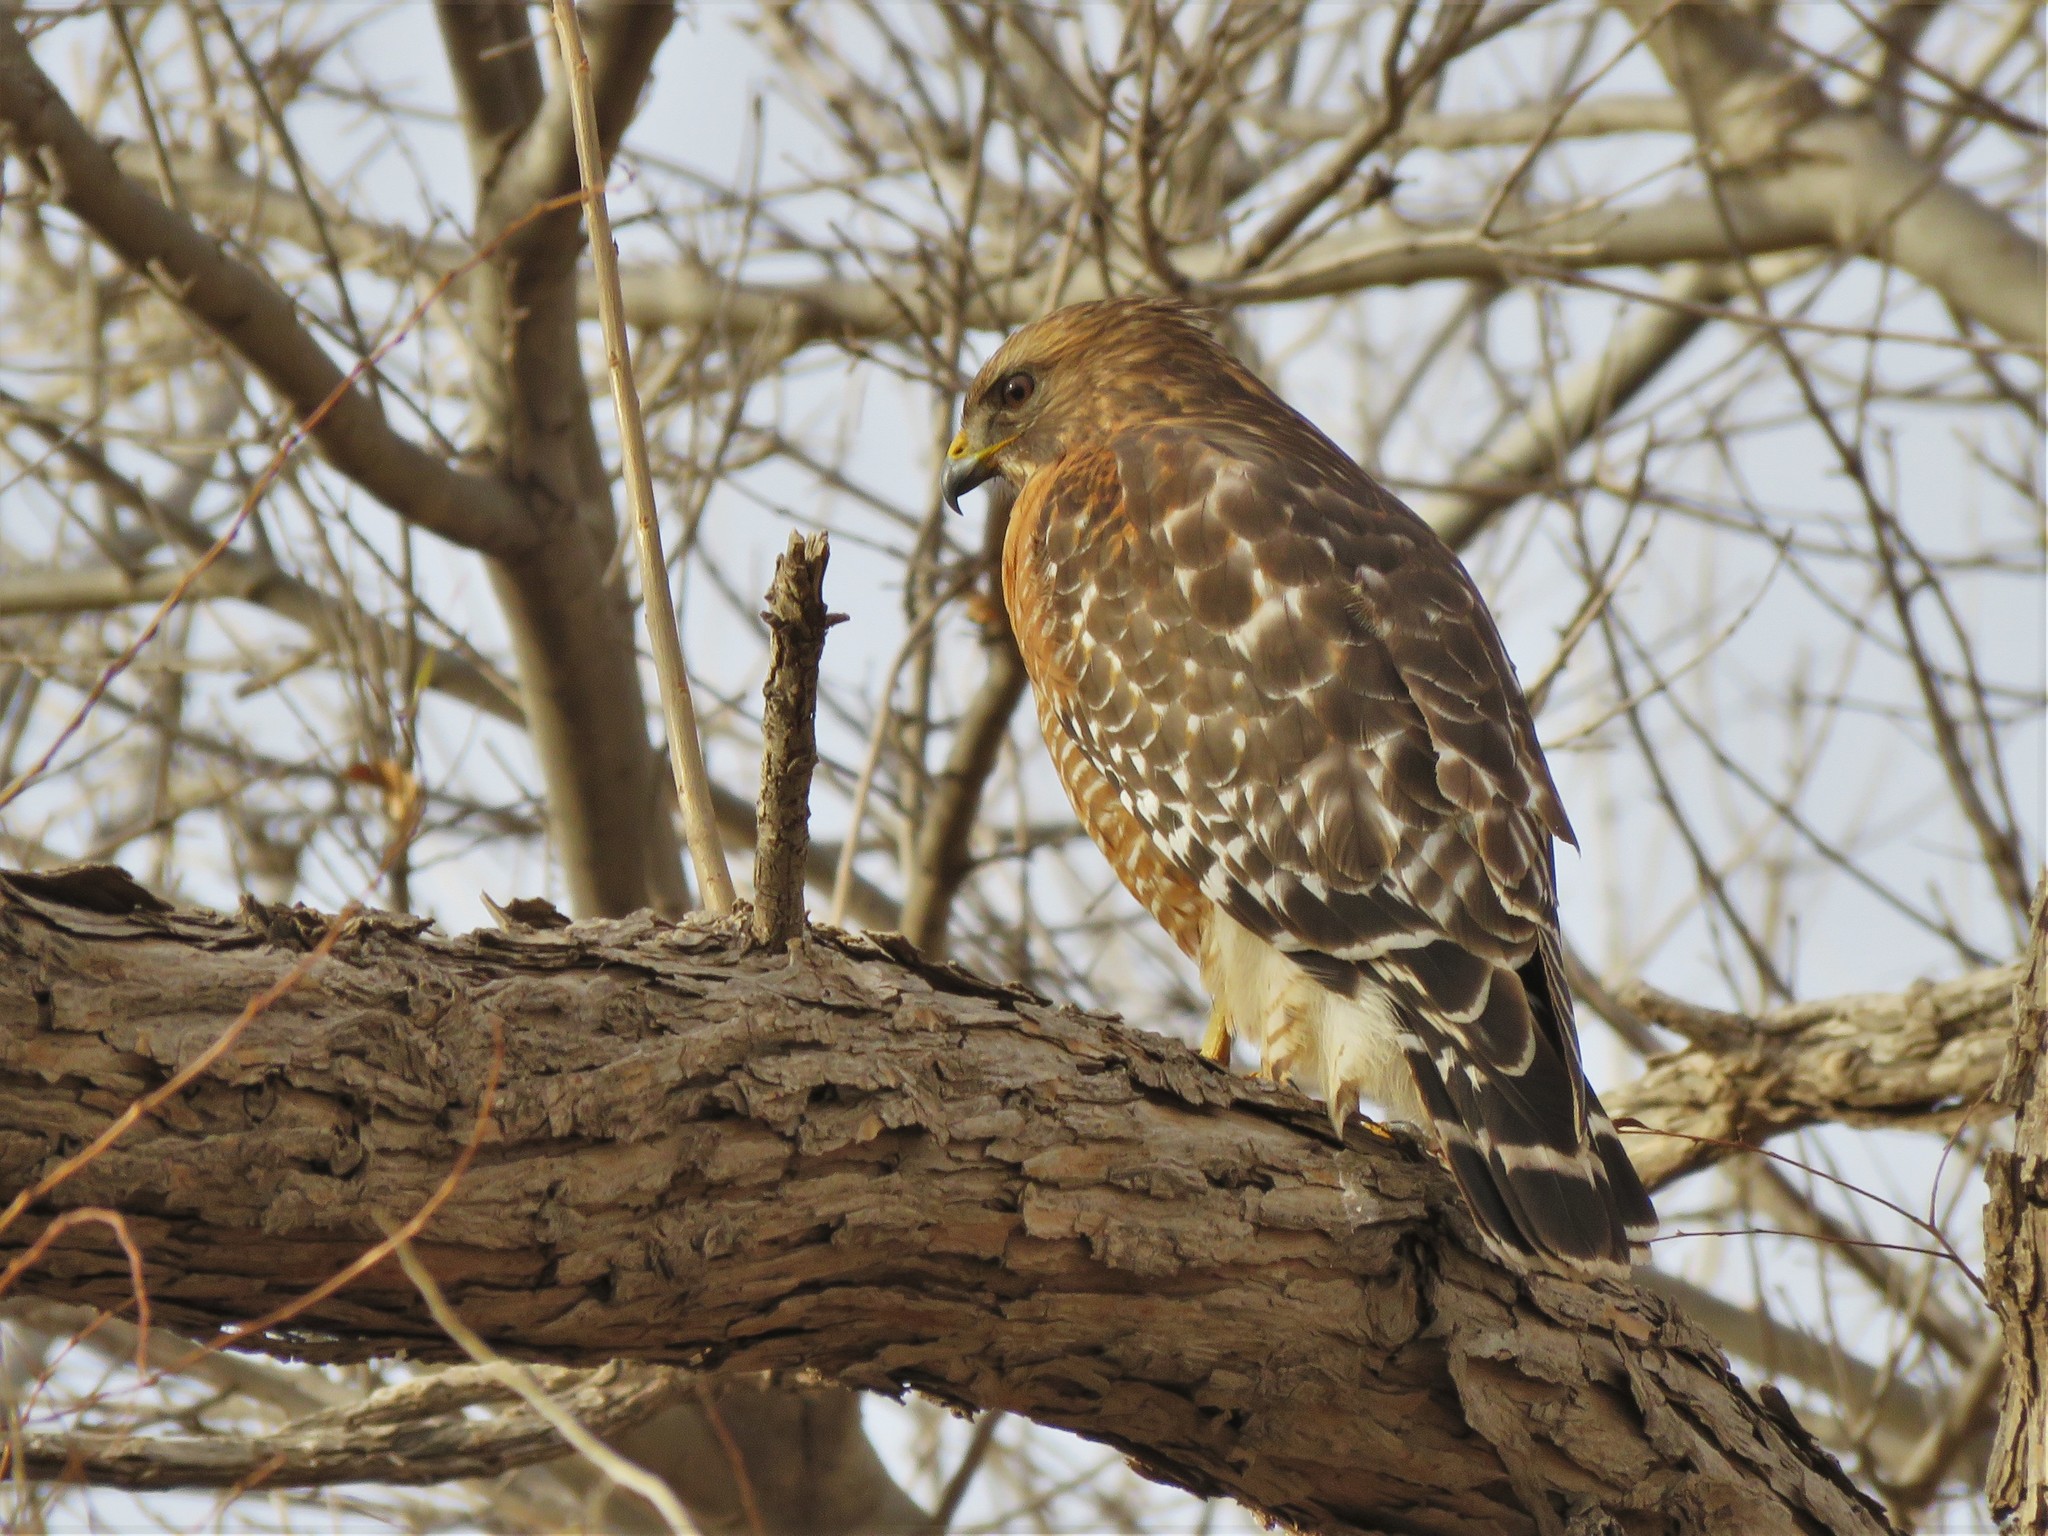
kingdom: Animalia
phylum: Chordata
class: Aves
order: Accipitriformes
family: Accipitridae
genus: Buteo
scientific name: Buteo lineatus
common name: Red-shouldered hawk
